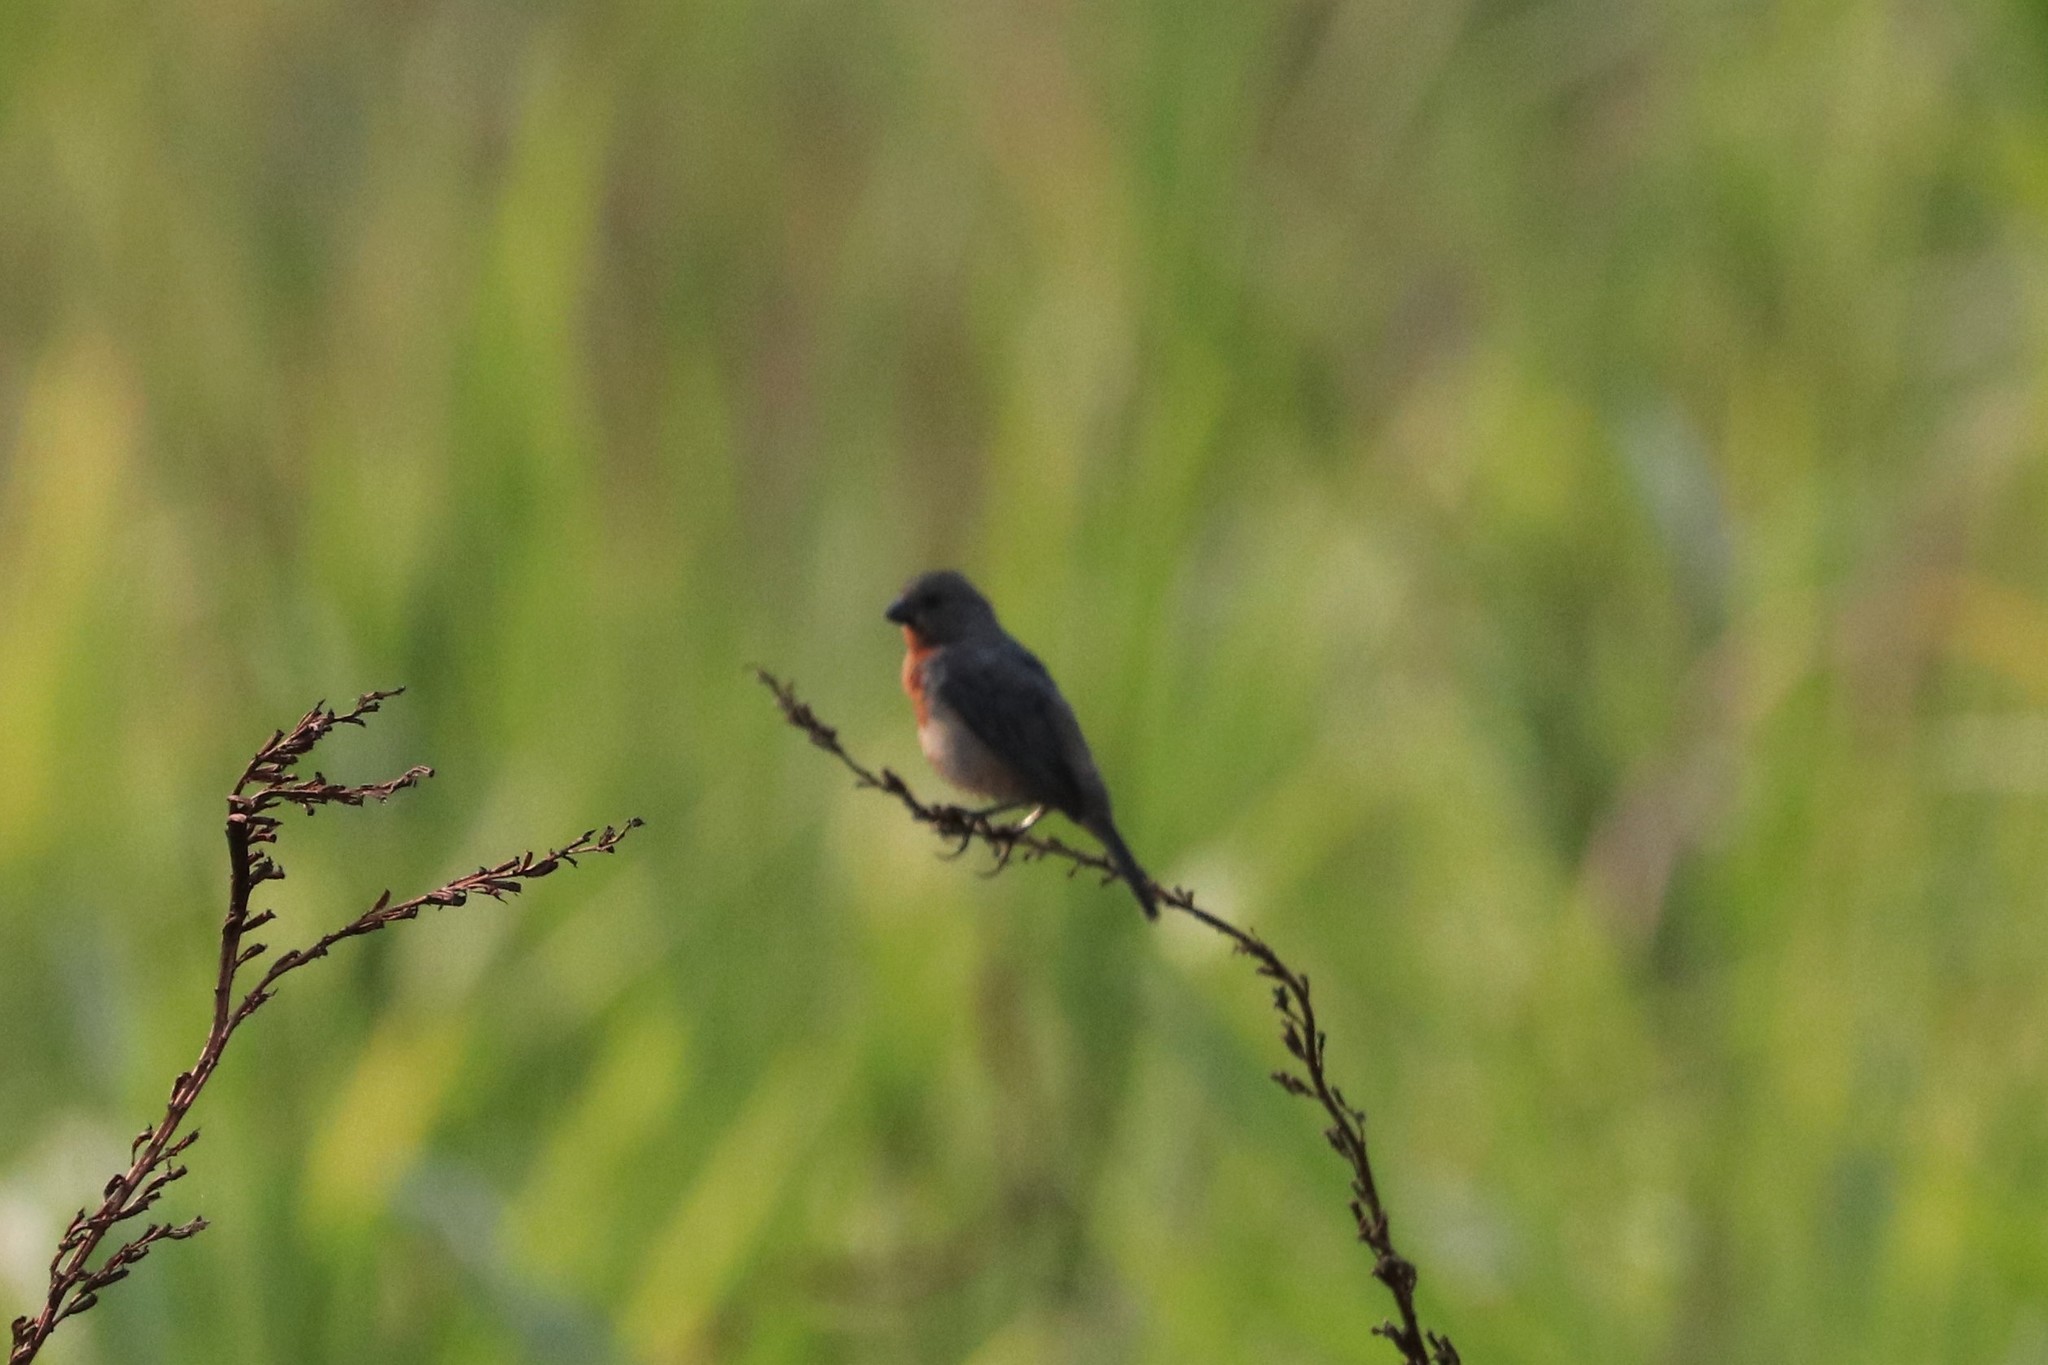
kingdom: Animalia
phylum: Chordata
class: Aves
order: Passeriformes
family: Thraupidae
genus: Sporophila
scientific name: Sporophila castaneiventris
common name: Chestnut-bellied seedeater
